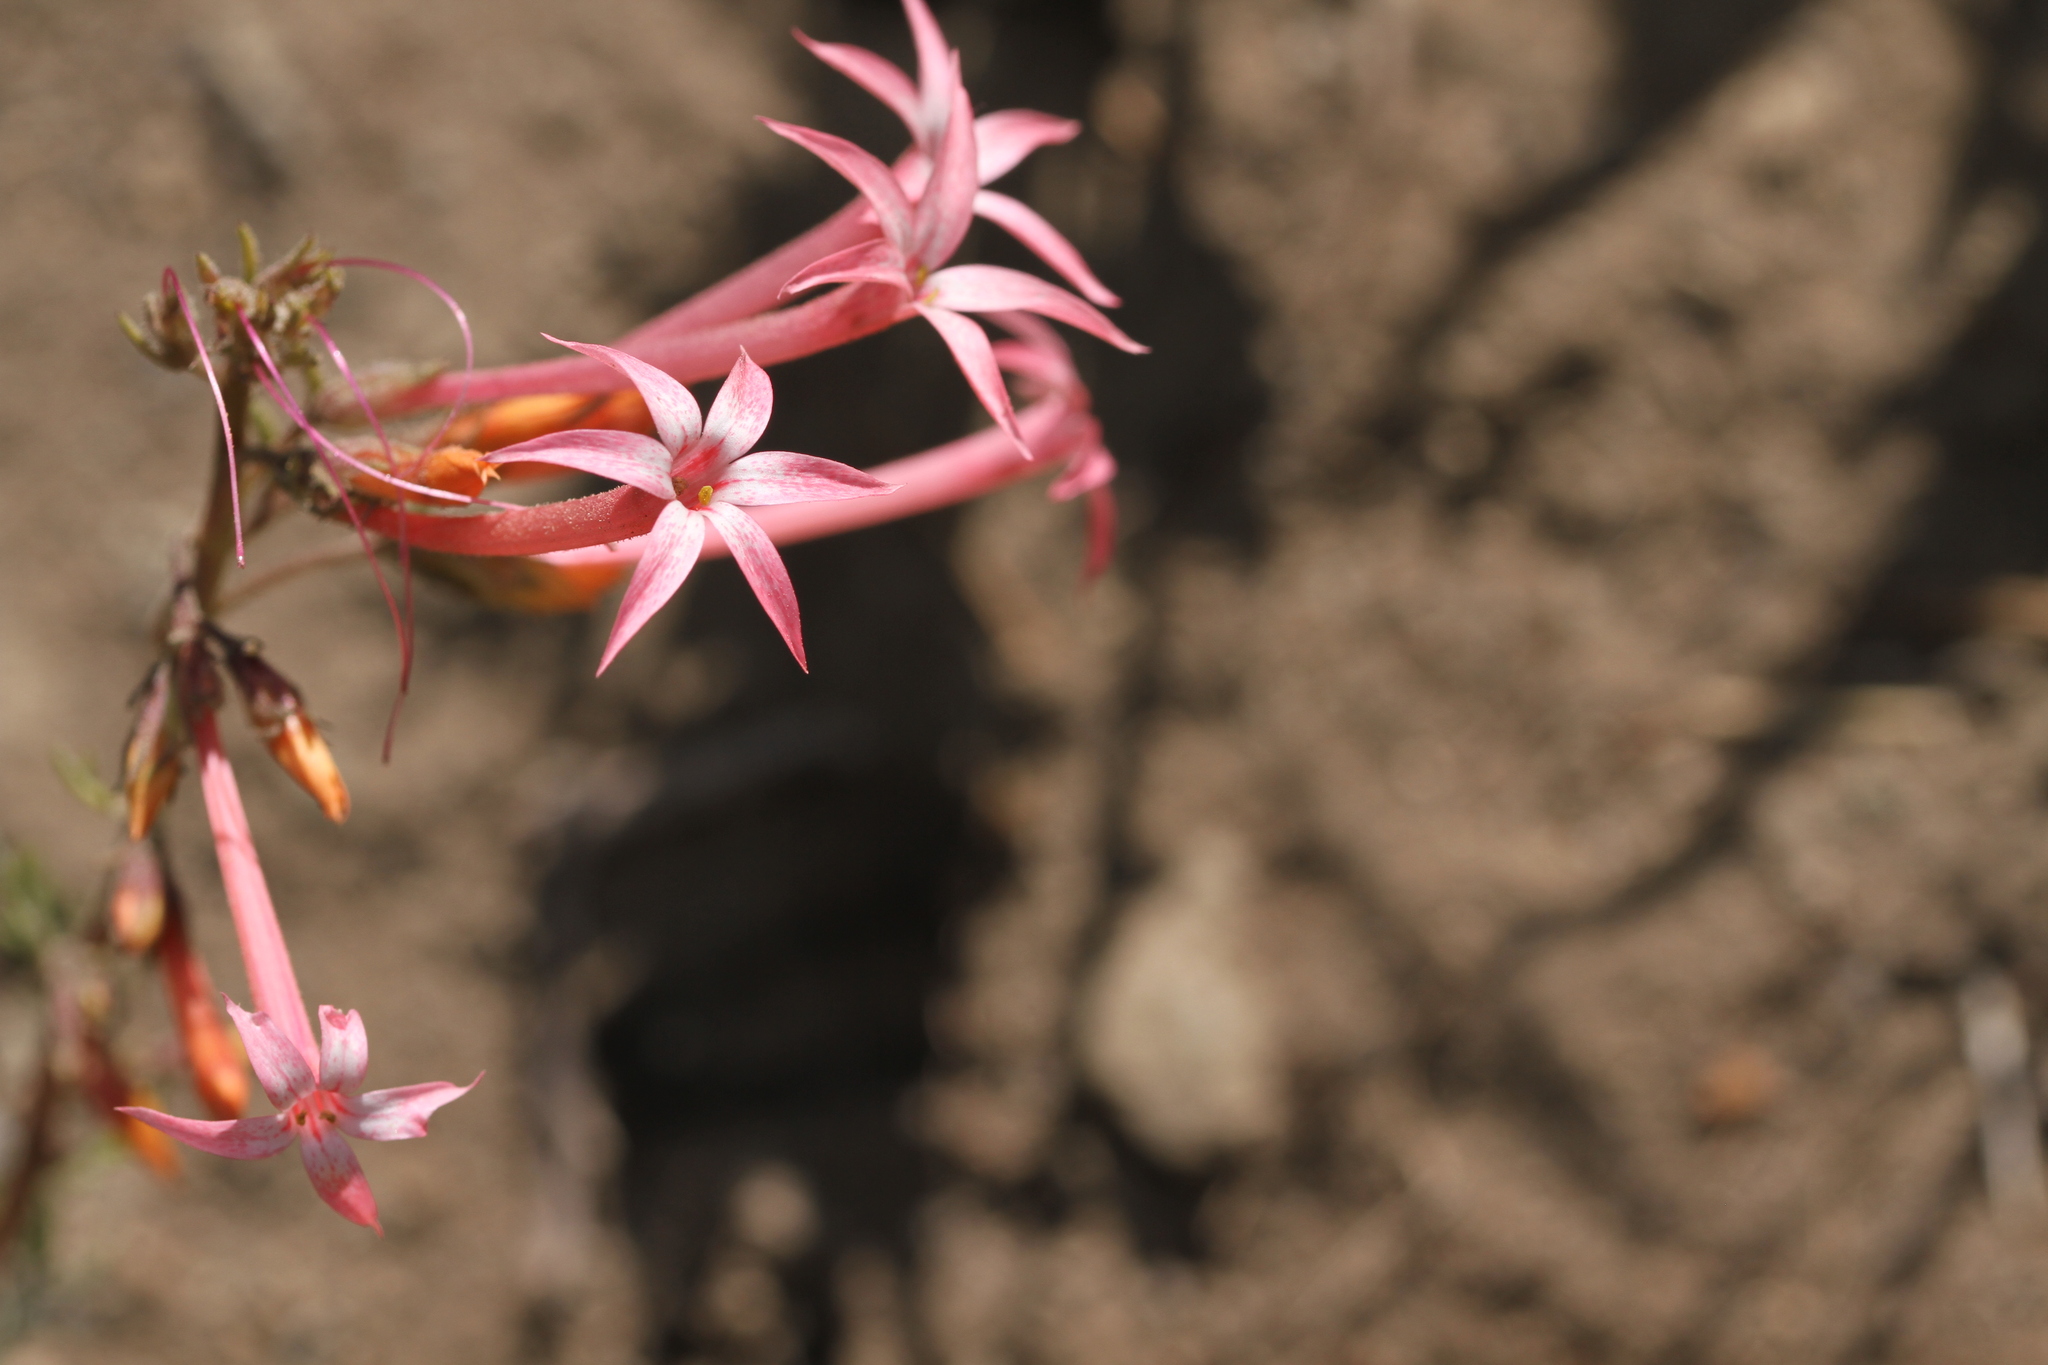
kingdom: Plantae
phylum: Tracheophyta
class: Magnoliopsida
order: Ericales
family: Polemoniaceae
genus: Ipomopsis
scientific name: Ipomopsis tenuituba
